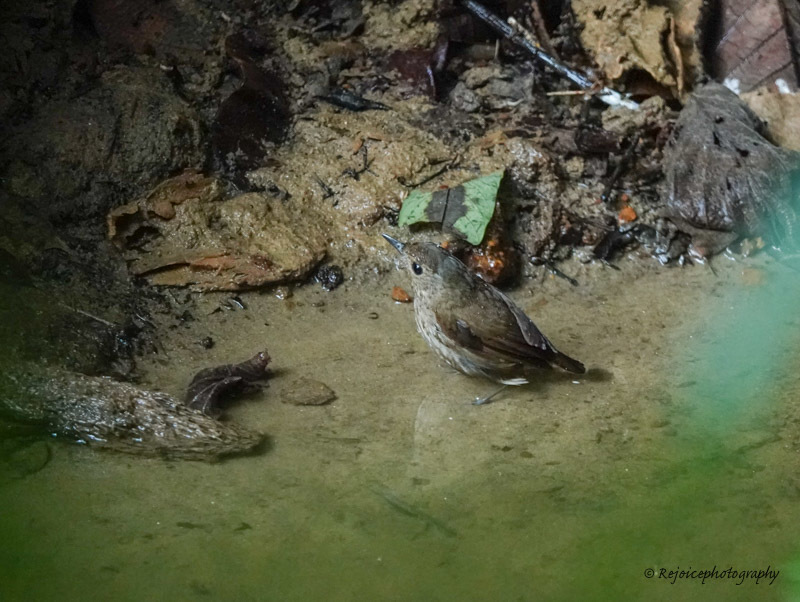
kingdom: Animalia
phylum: Chordata
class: Aves
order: Passeriformes
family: Muscicapidae
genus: Brachypteryx
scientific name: Brachypteryx leucophris
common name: Lesser shortwing
